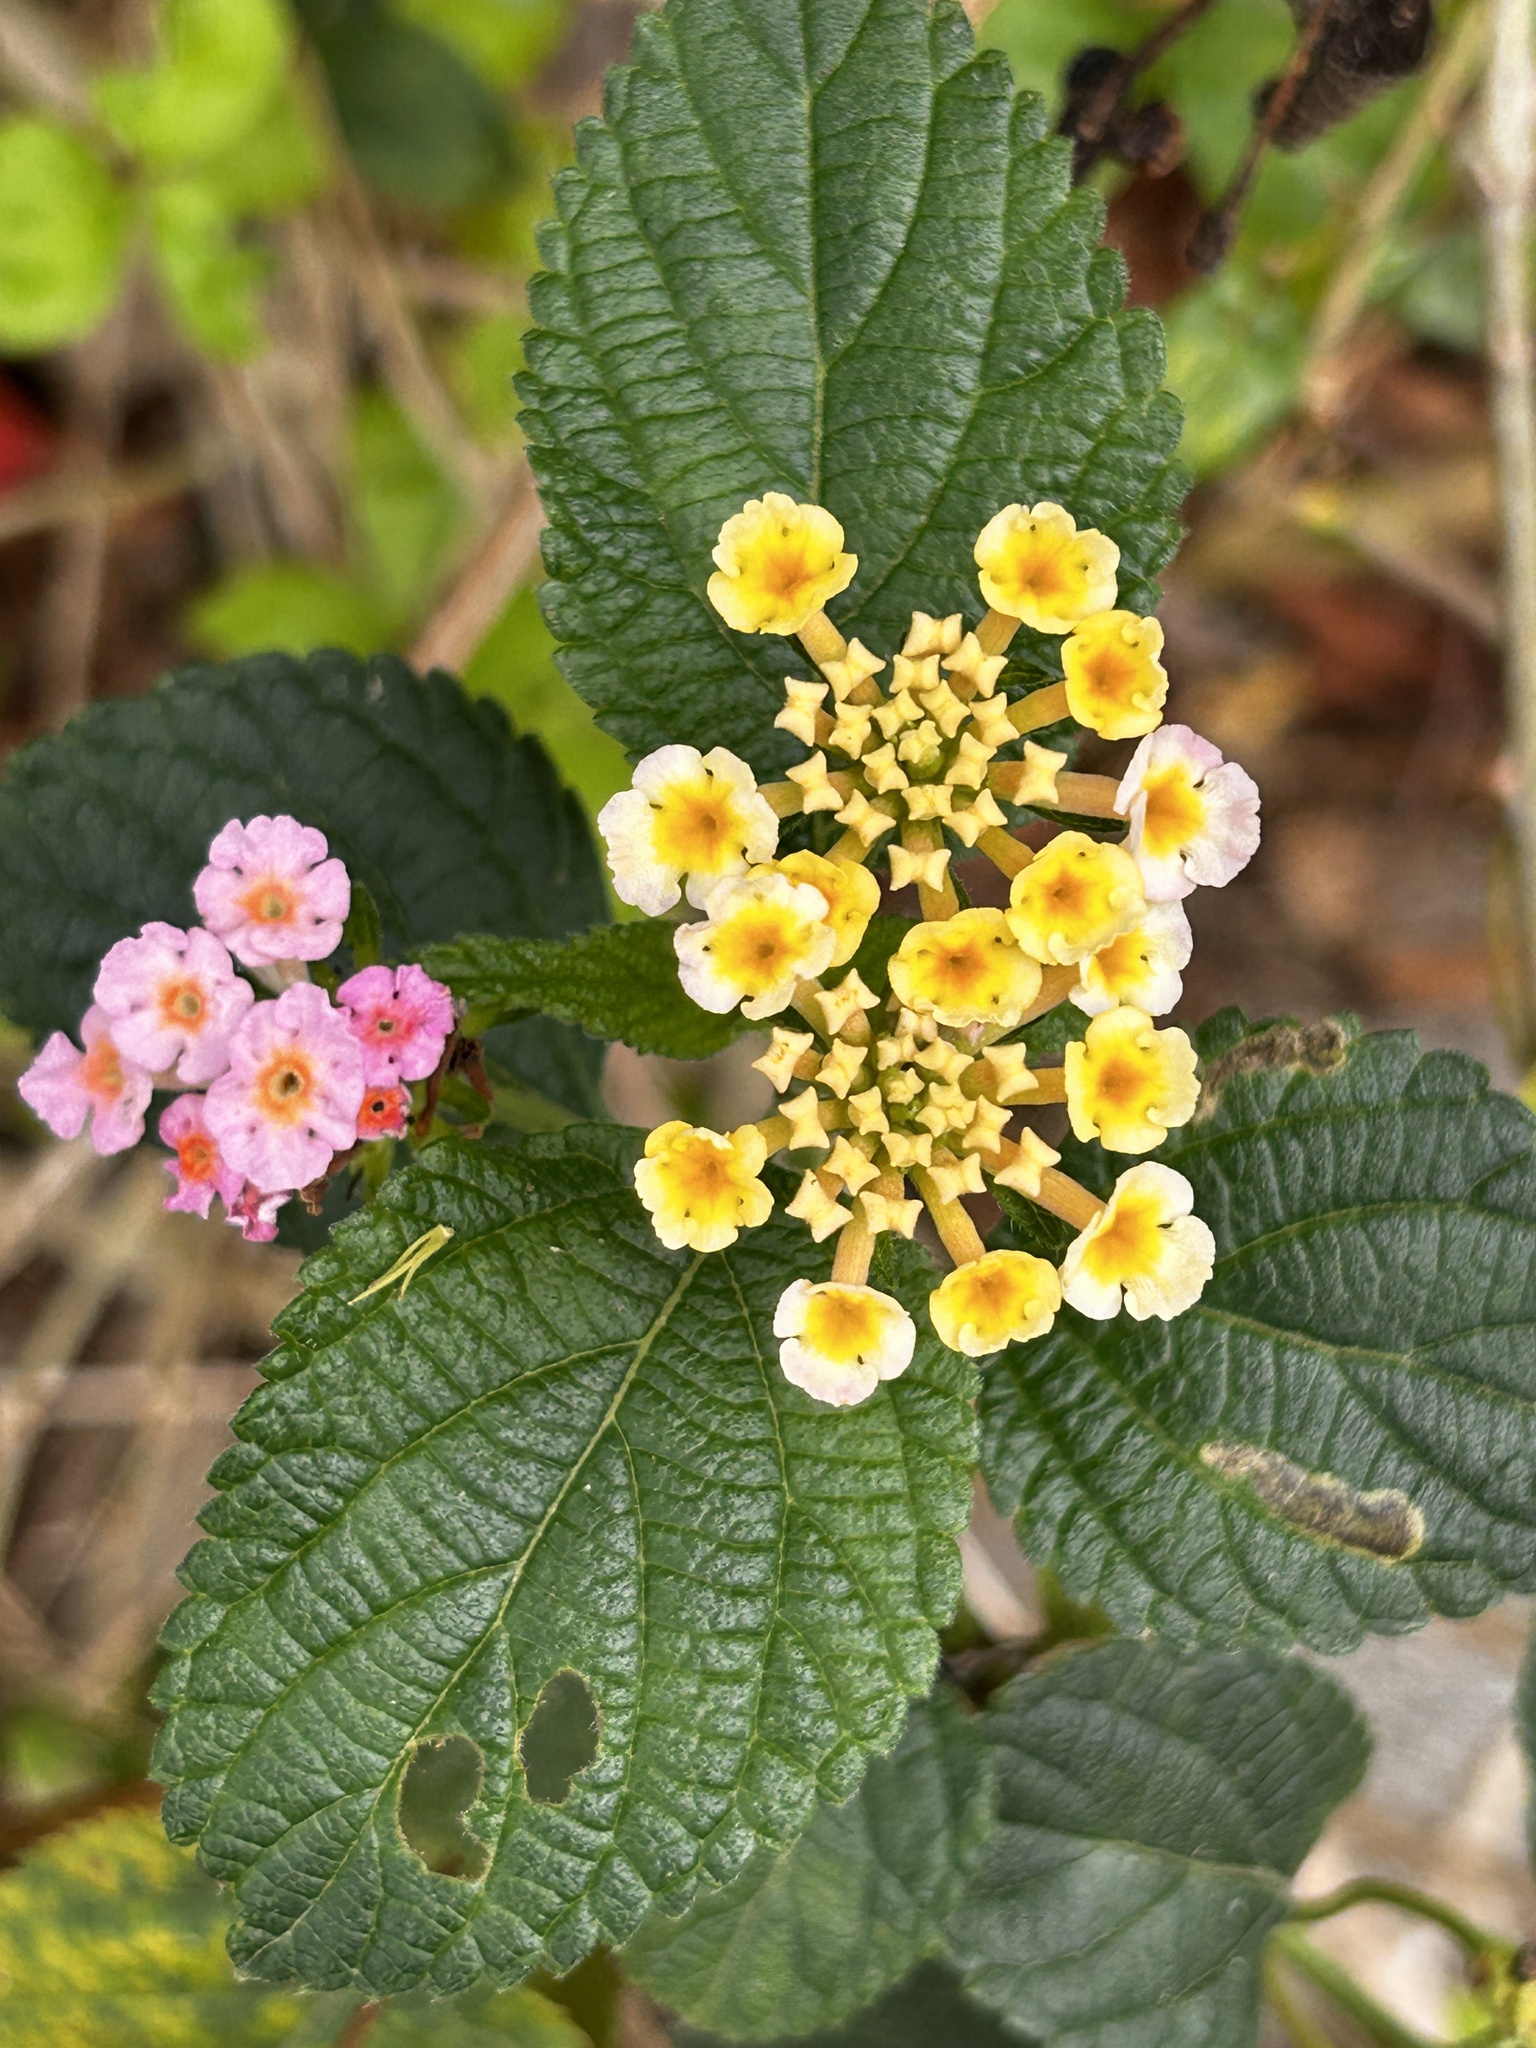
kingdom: Plantae
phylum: Tracheophyta
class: Magnoliopsida
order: Lamiales
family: Verbenaceae
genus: Lantana
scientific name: Lantana camara
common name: Lantana
